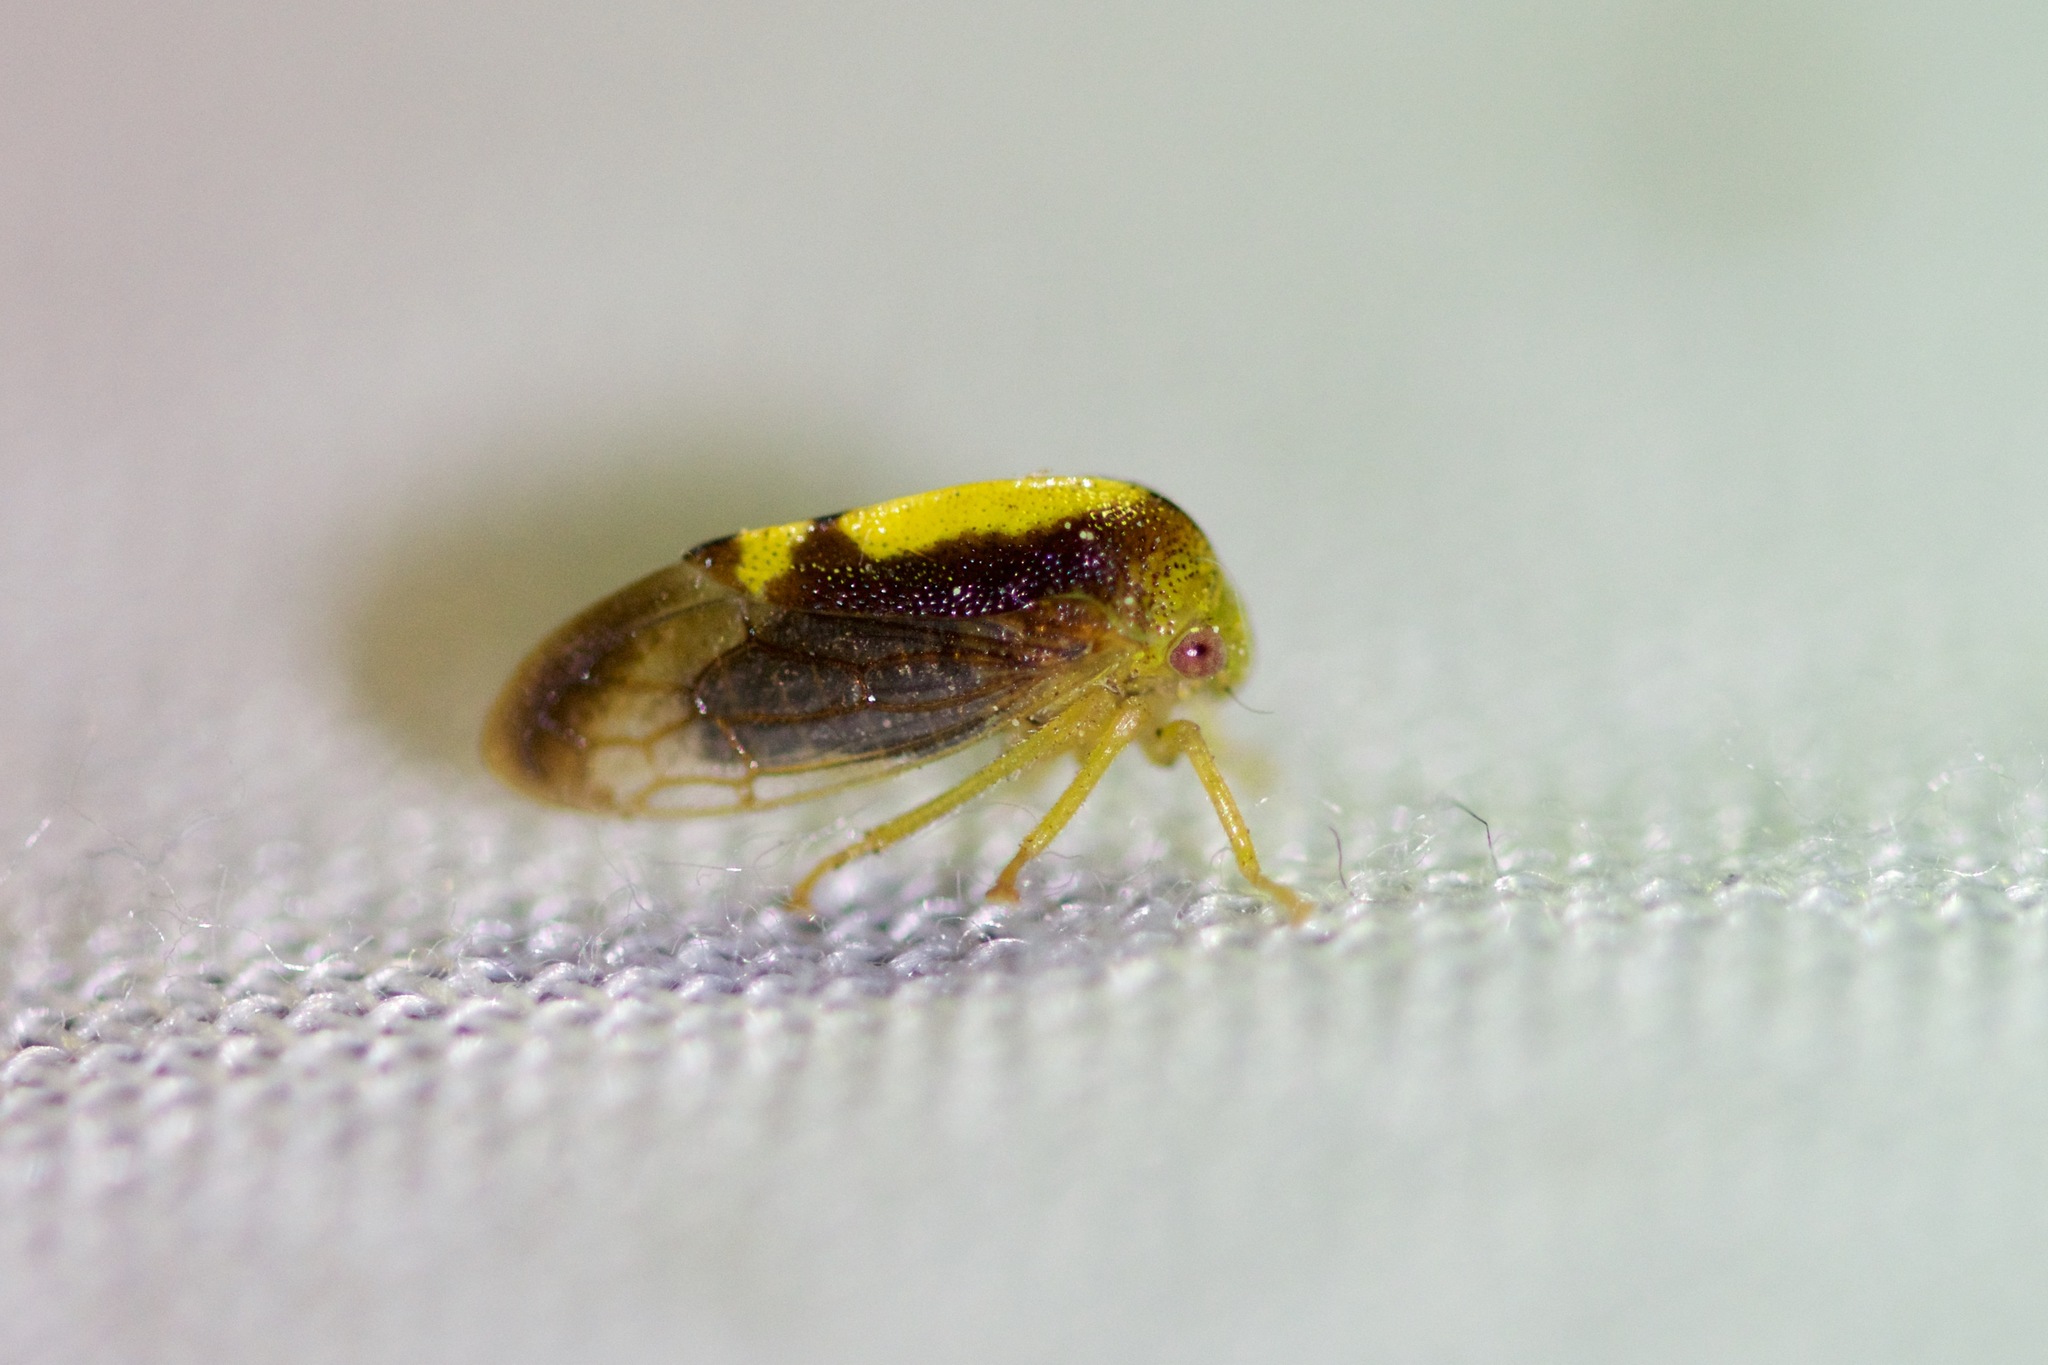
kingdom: Animalia
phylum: Arthropoda
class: Insecta
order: Hemiptera
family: Membracidae
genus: Atymna
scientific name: Atymna querci
